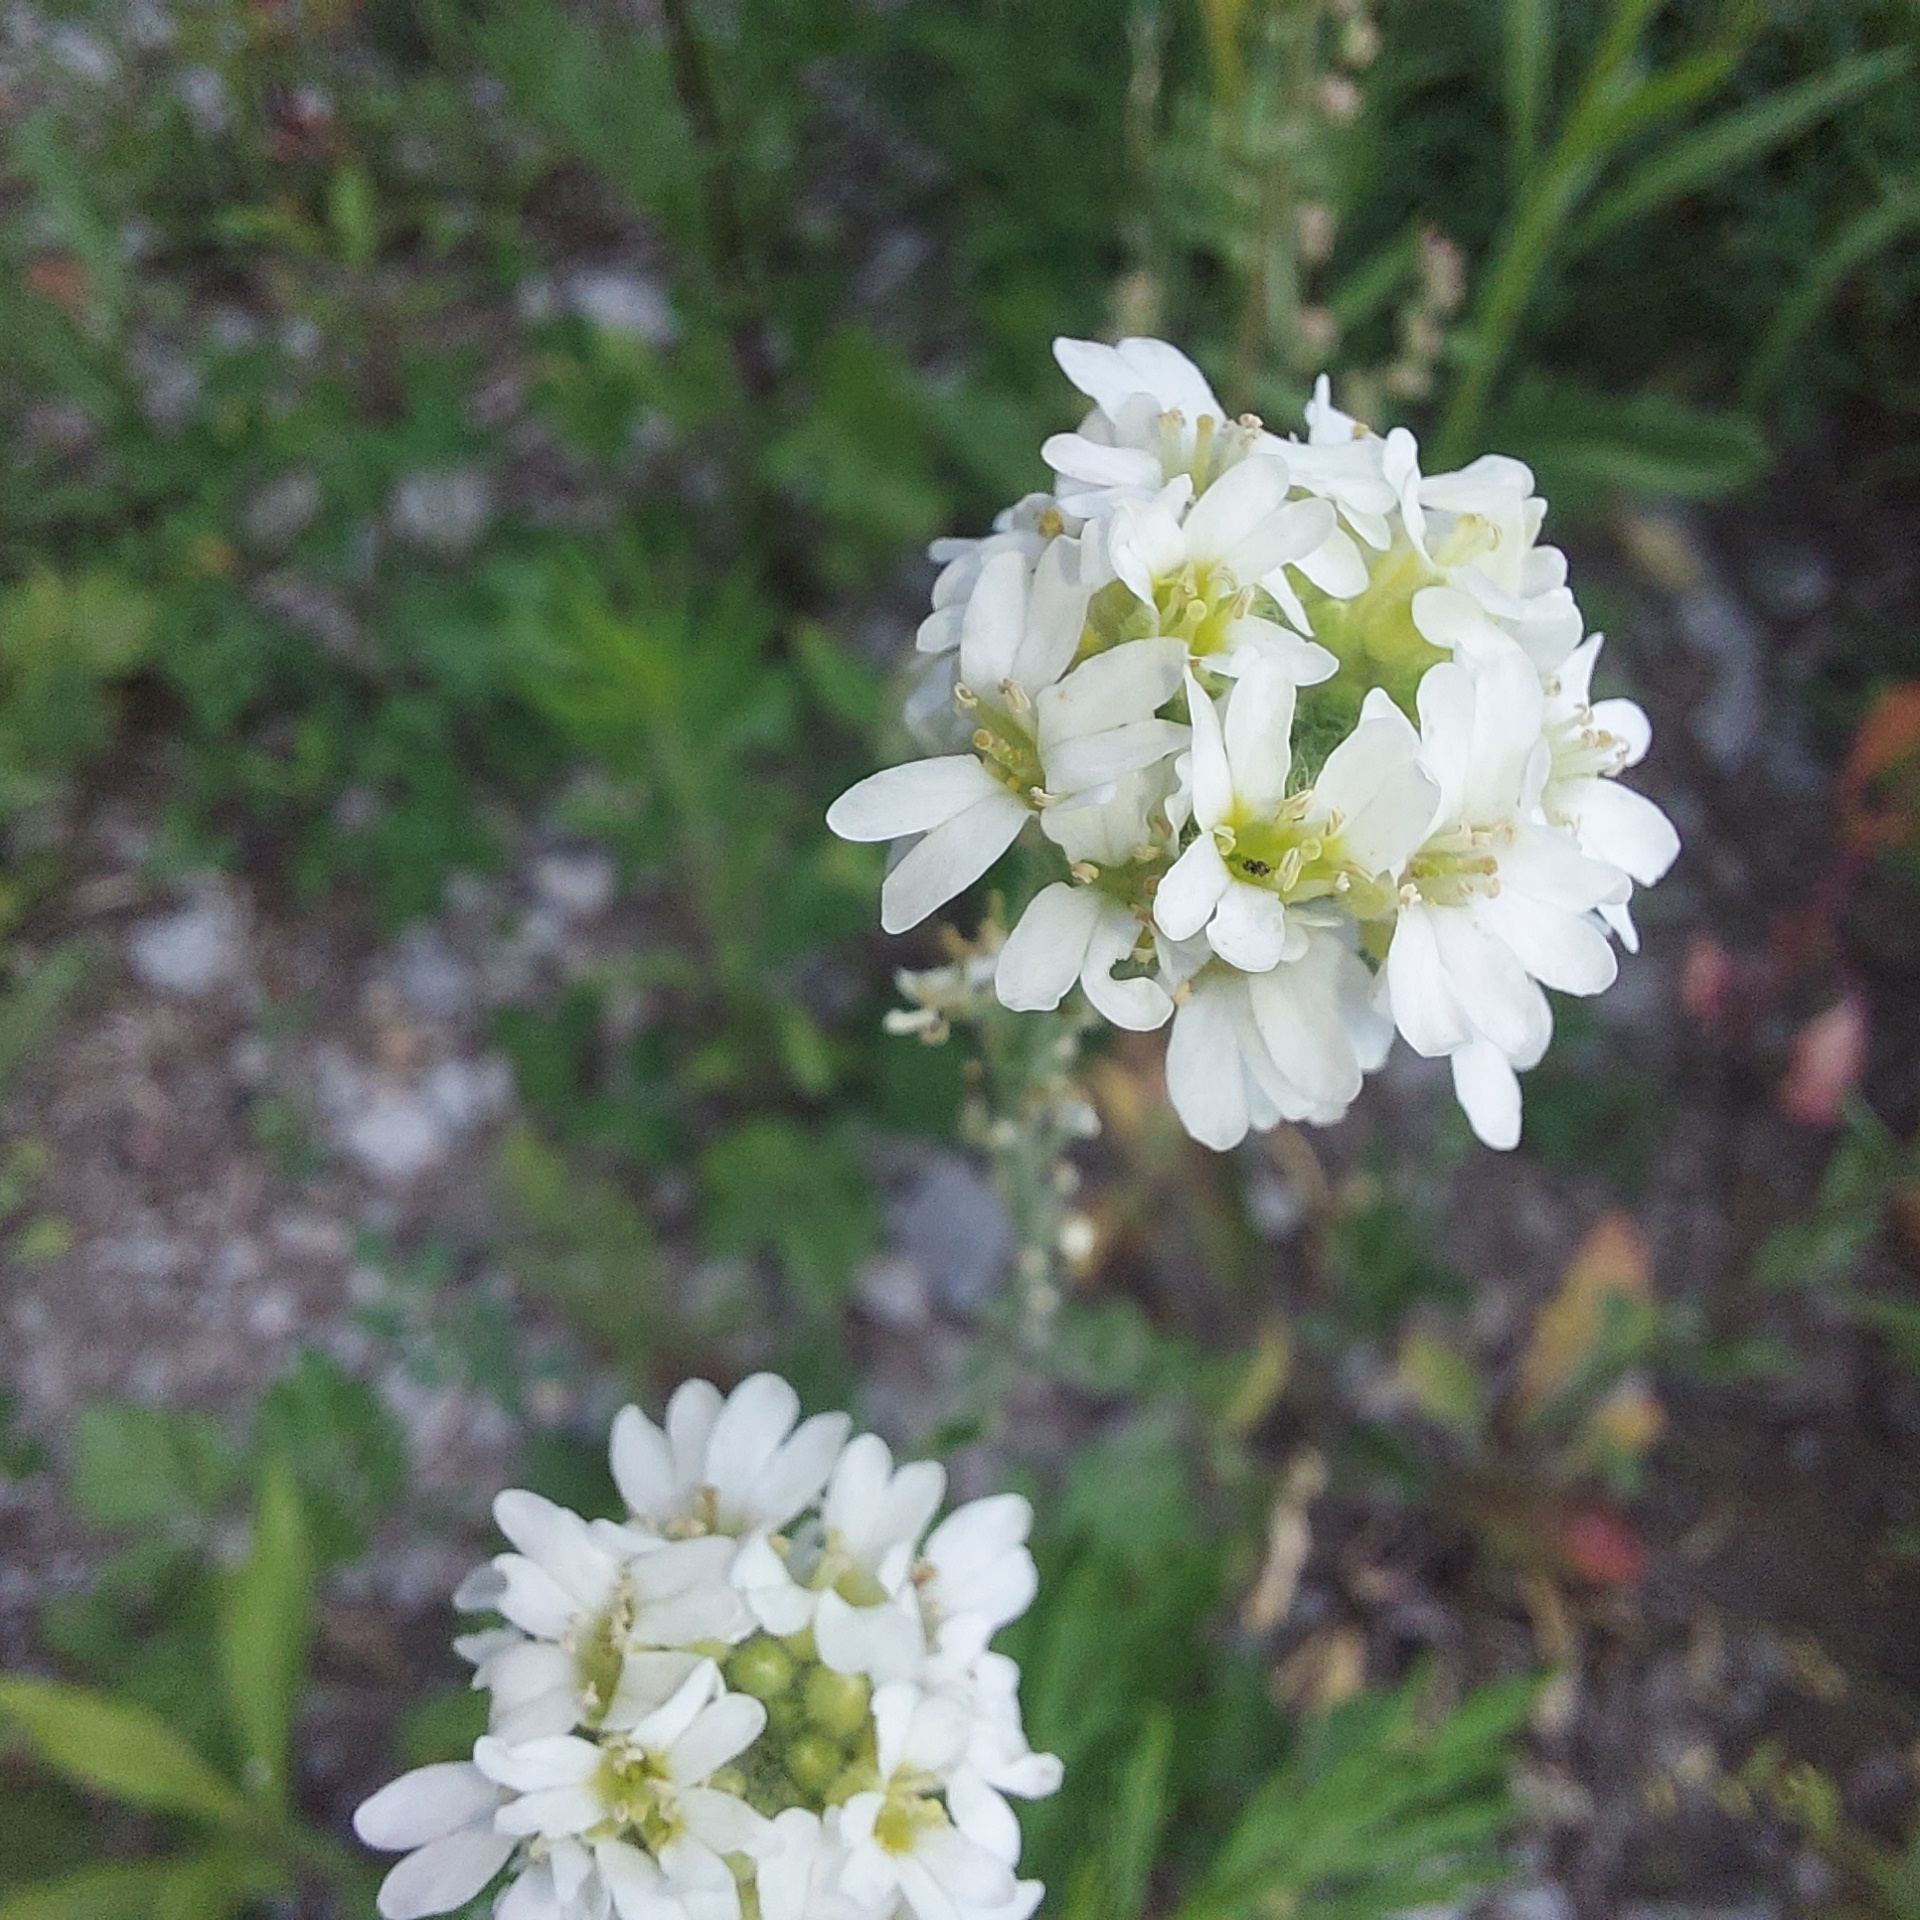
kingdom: Plantae
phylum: Tracheophyta
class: Magnoliopsida
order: Brassicales
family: Brassicaceae
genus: Berteroa
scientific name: Berteroa incana
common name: Hoary alison
